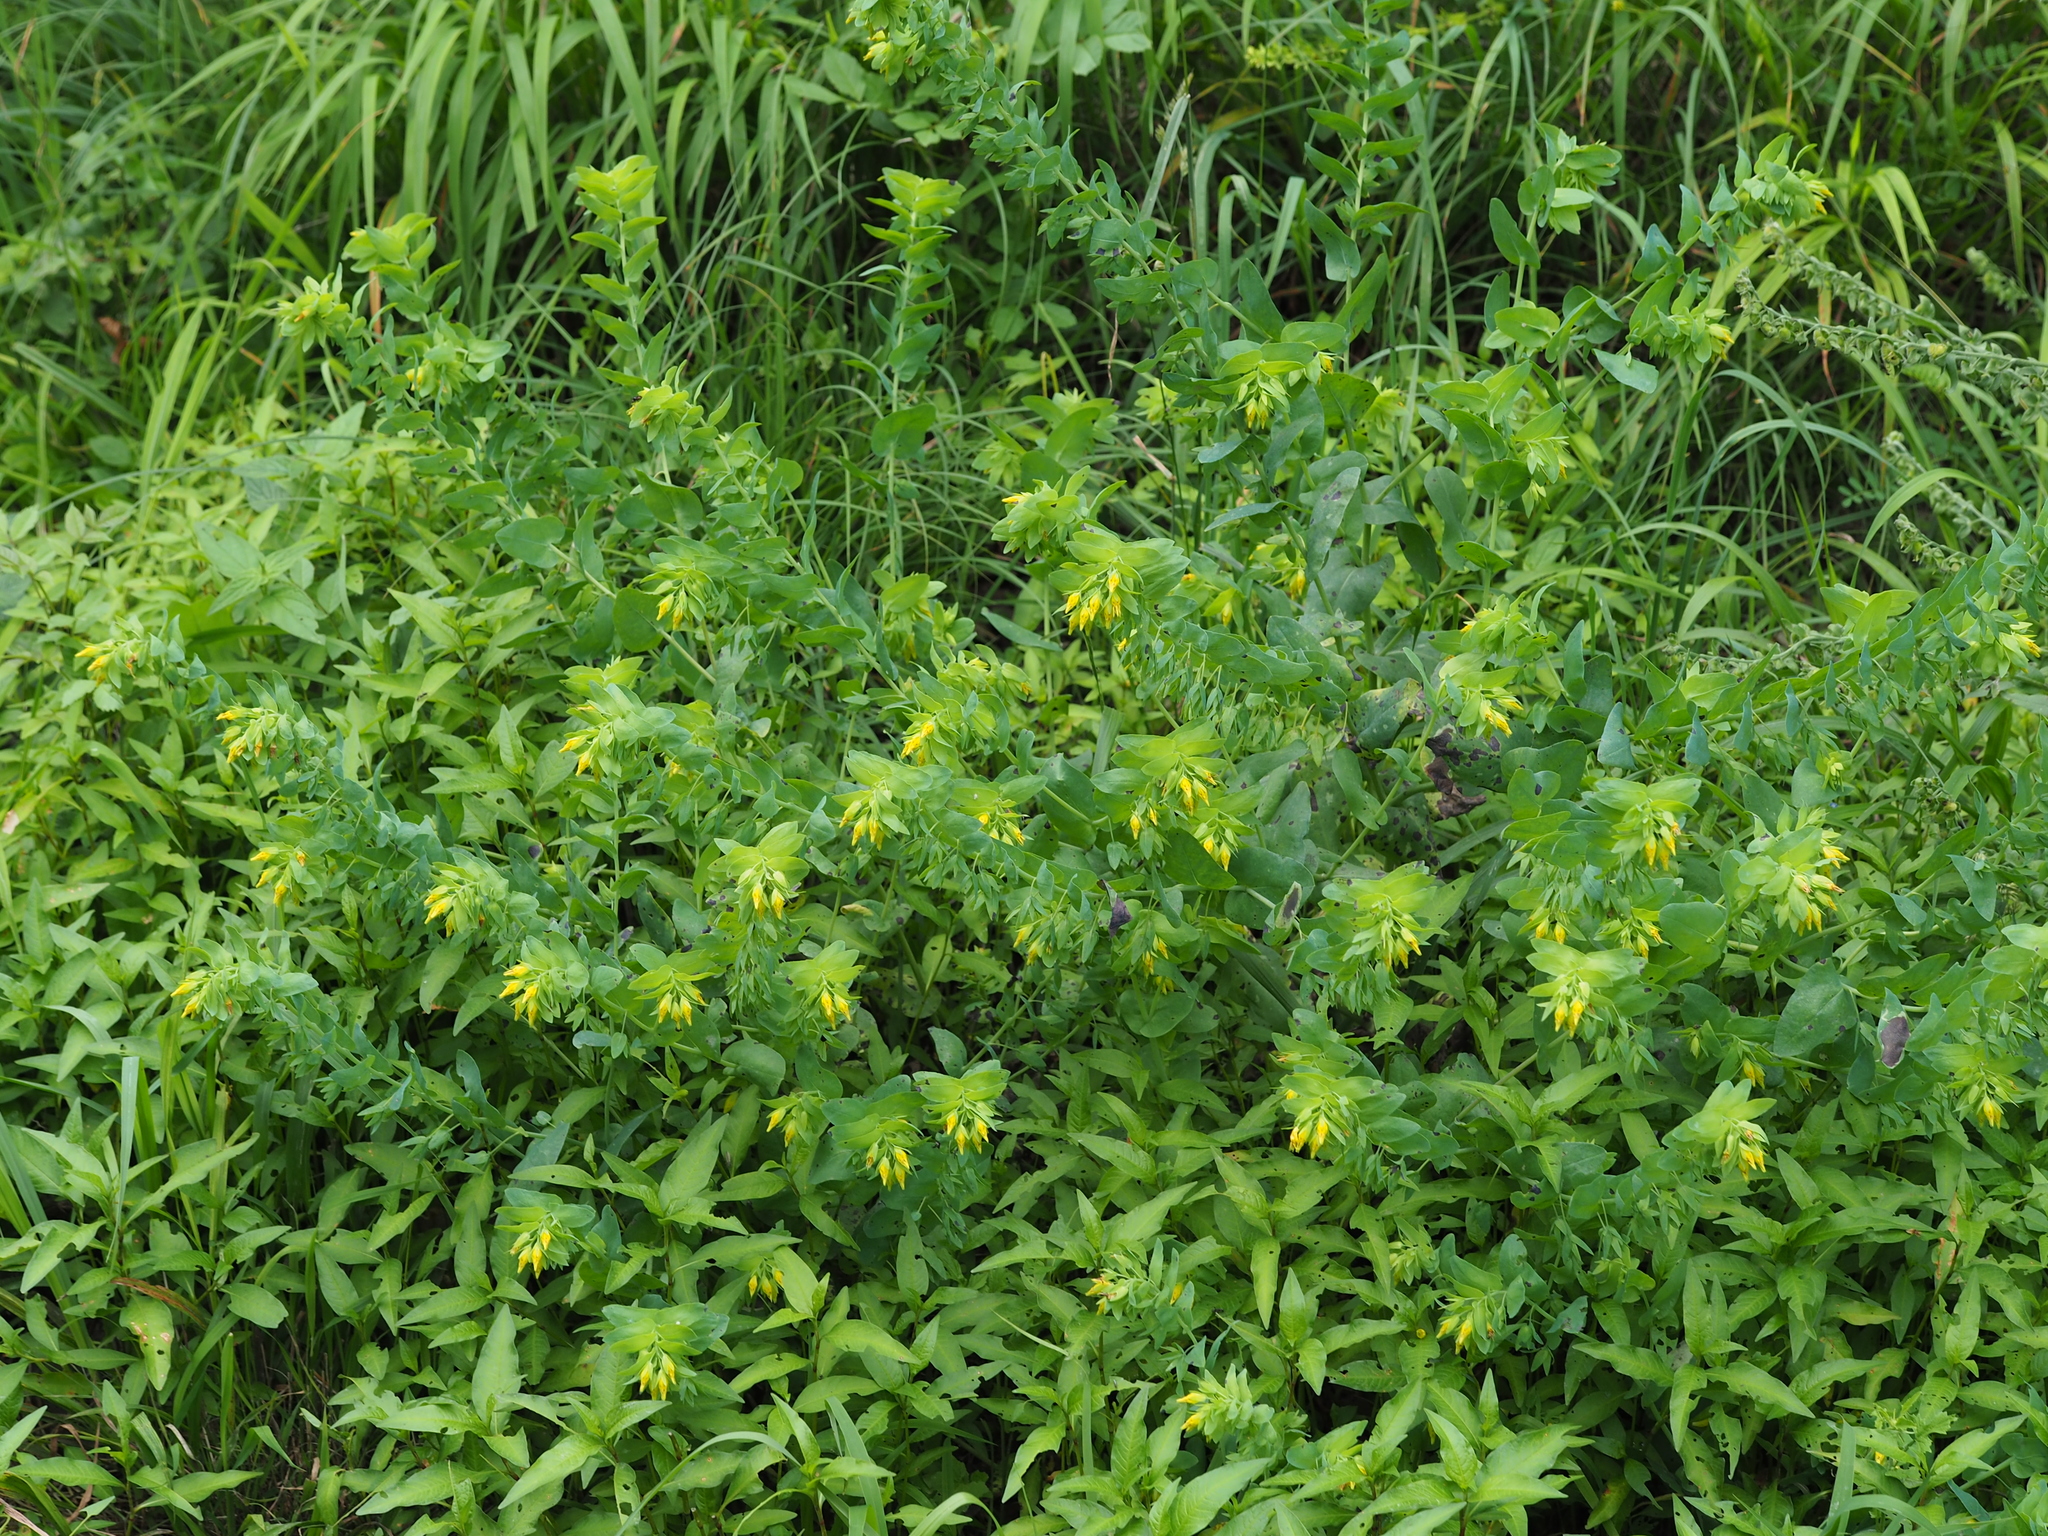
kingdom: Plantae
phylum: Tracheophyta
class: Magnoliopsida
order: Boraginales
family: Boraginaceae
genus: Cerinthe
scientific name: Cerinthe minor
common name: Lesser honeywort
